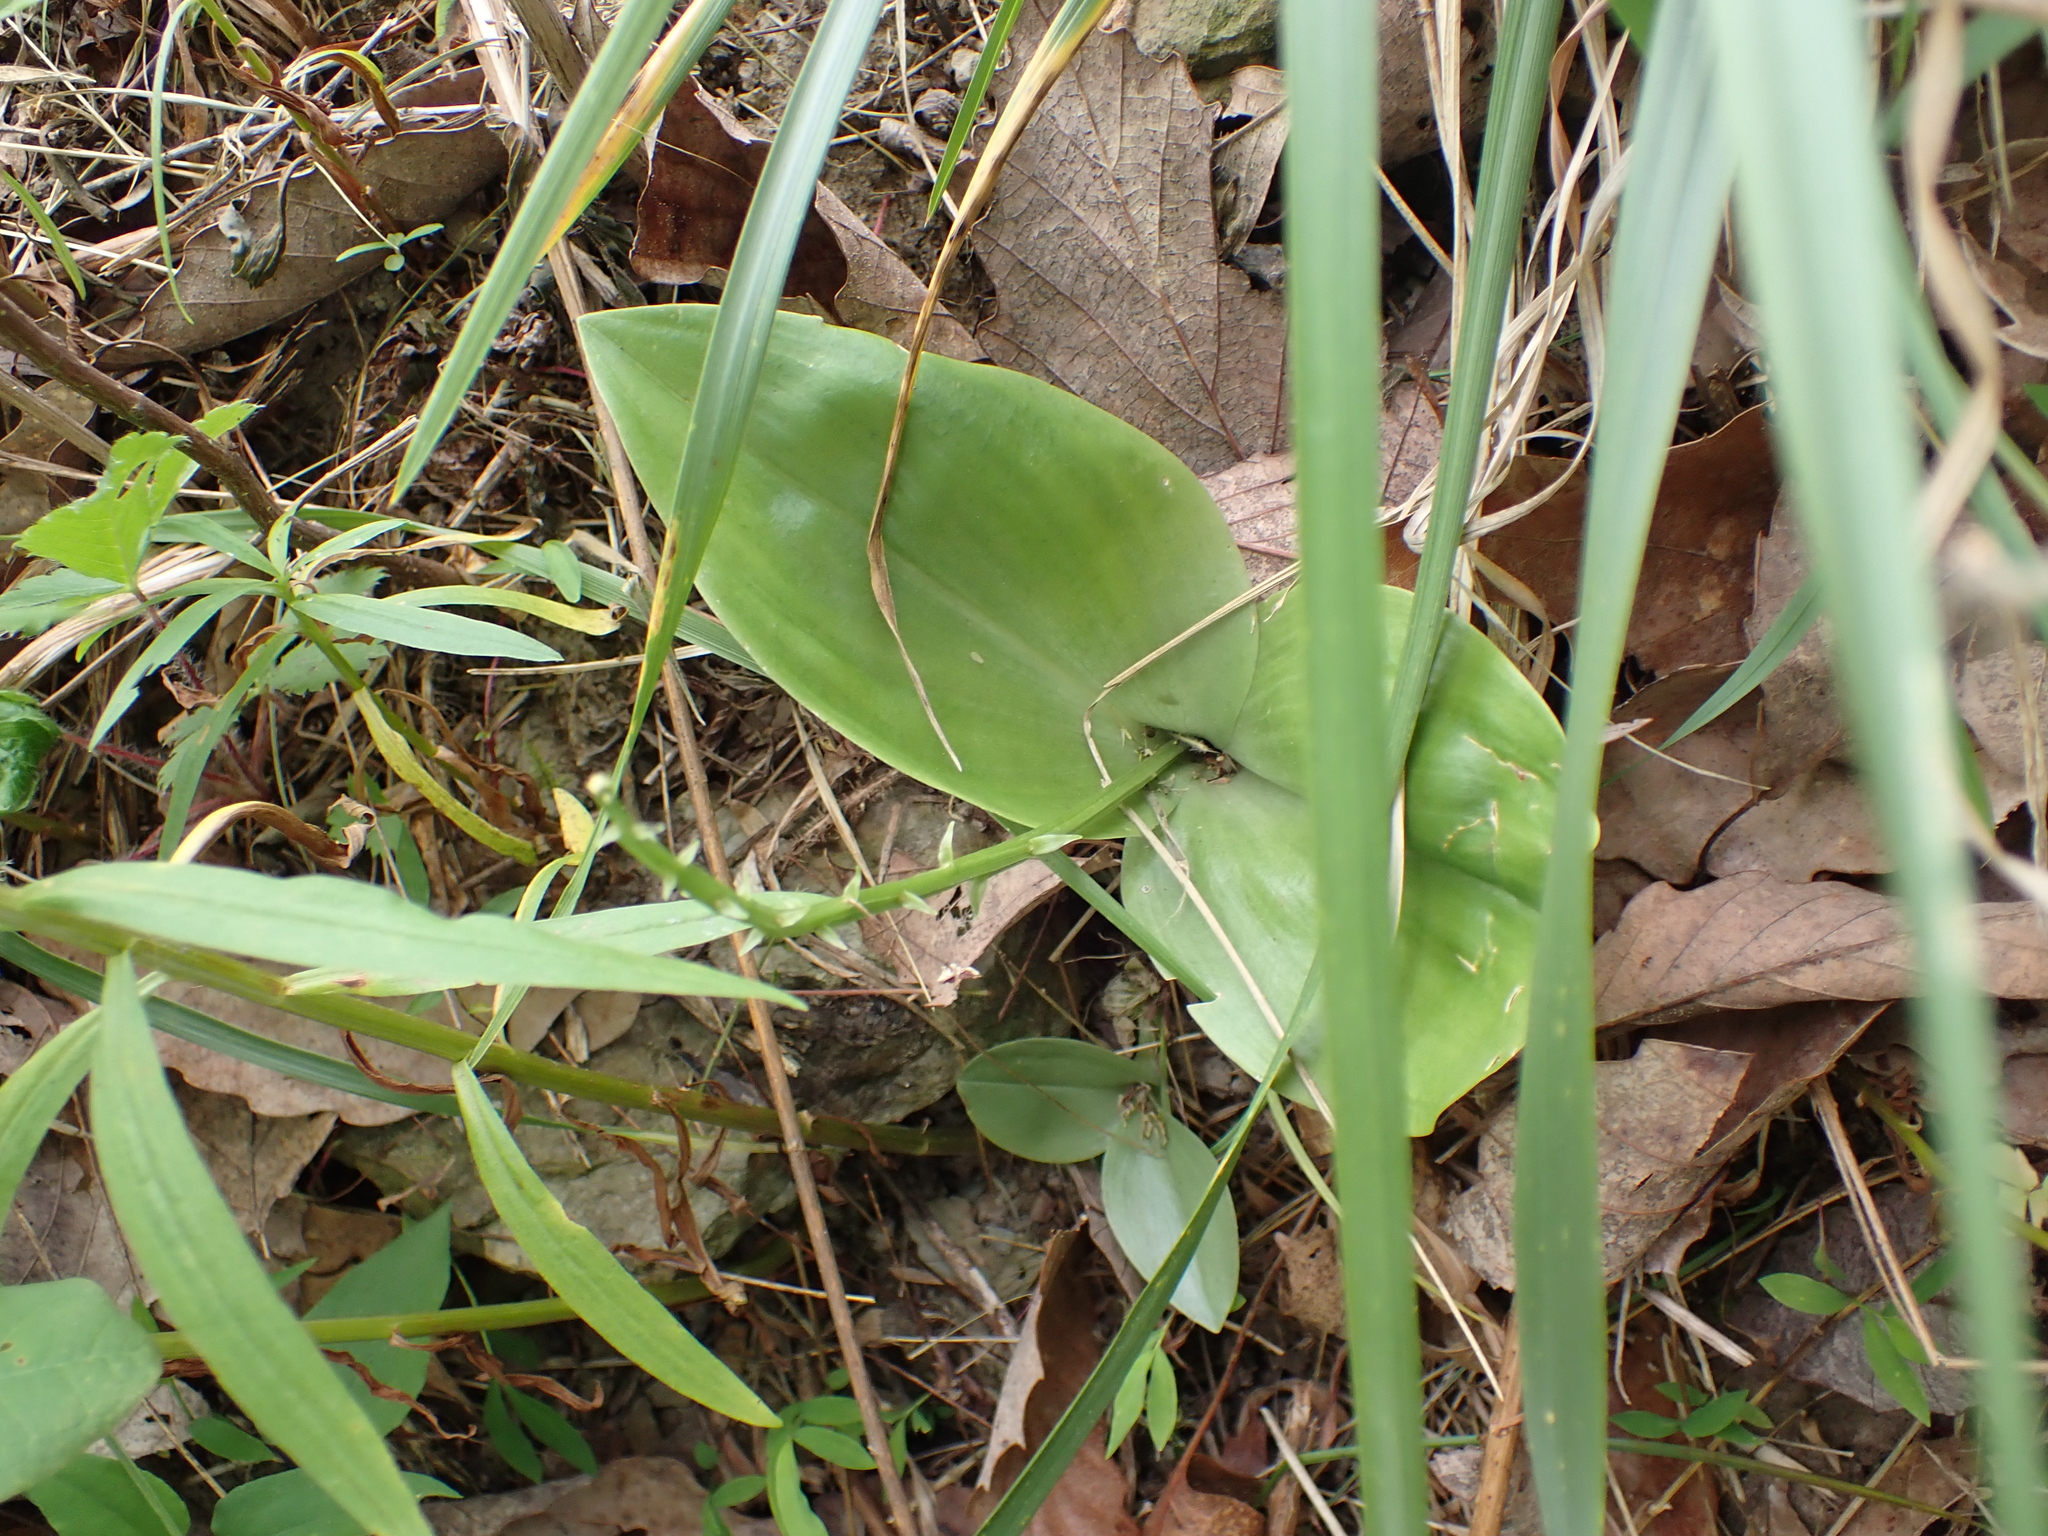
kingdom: Plantae
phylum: Tracheophyta
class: Liliopsida
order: Asparagales
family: Orchidaceae
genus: Liparis
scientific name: Liparis liliifolia
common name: Brown wide-lip orchid
